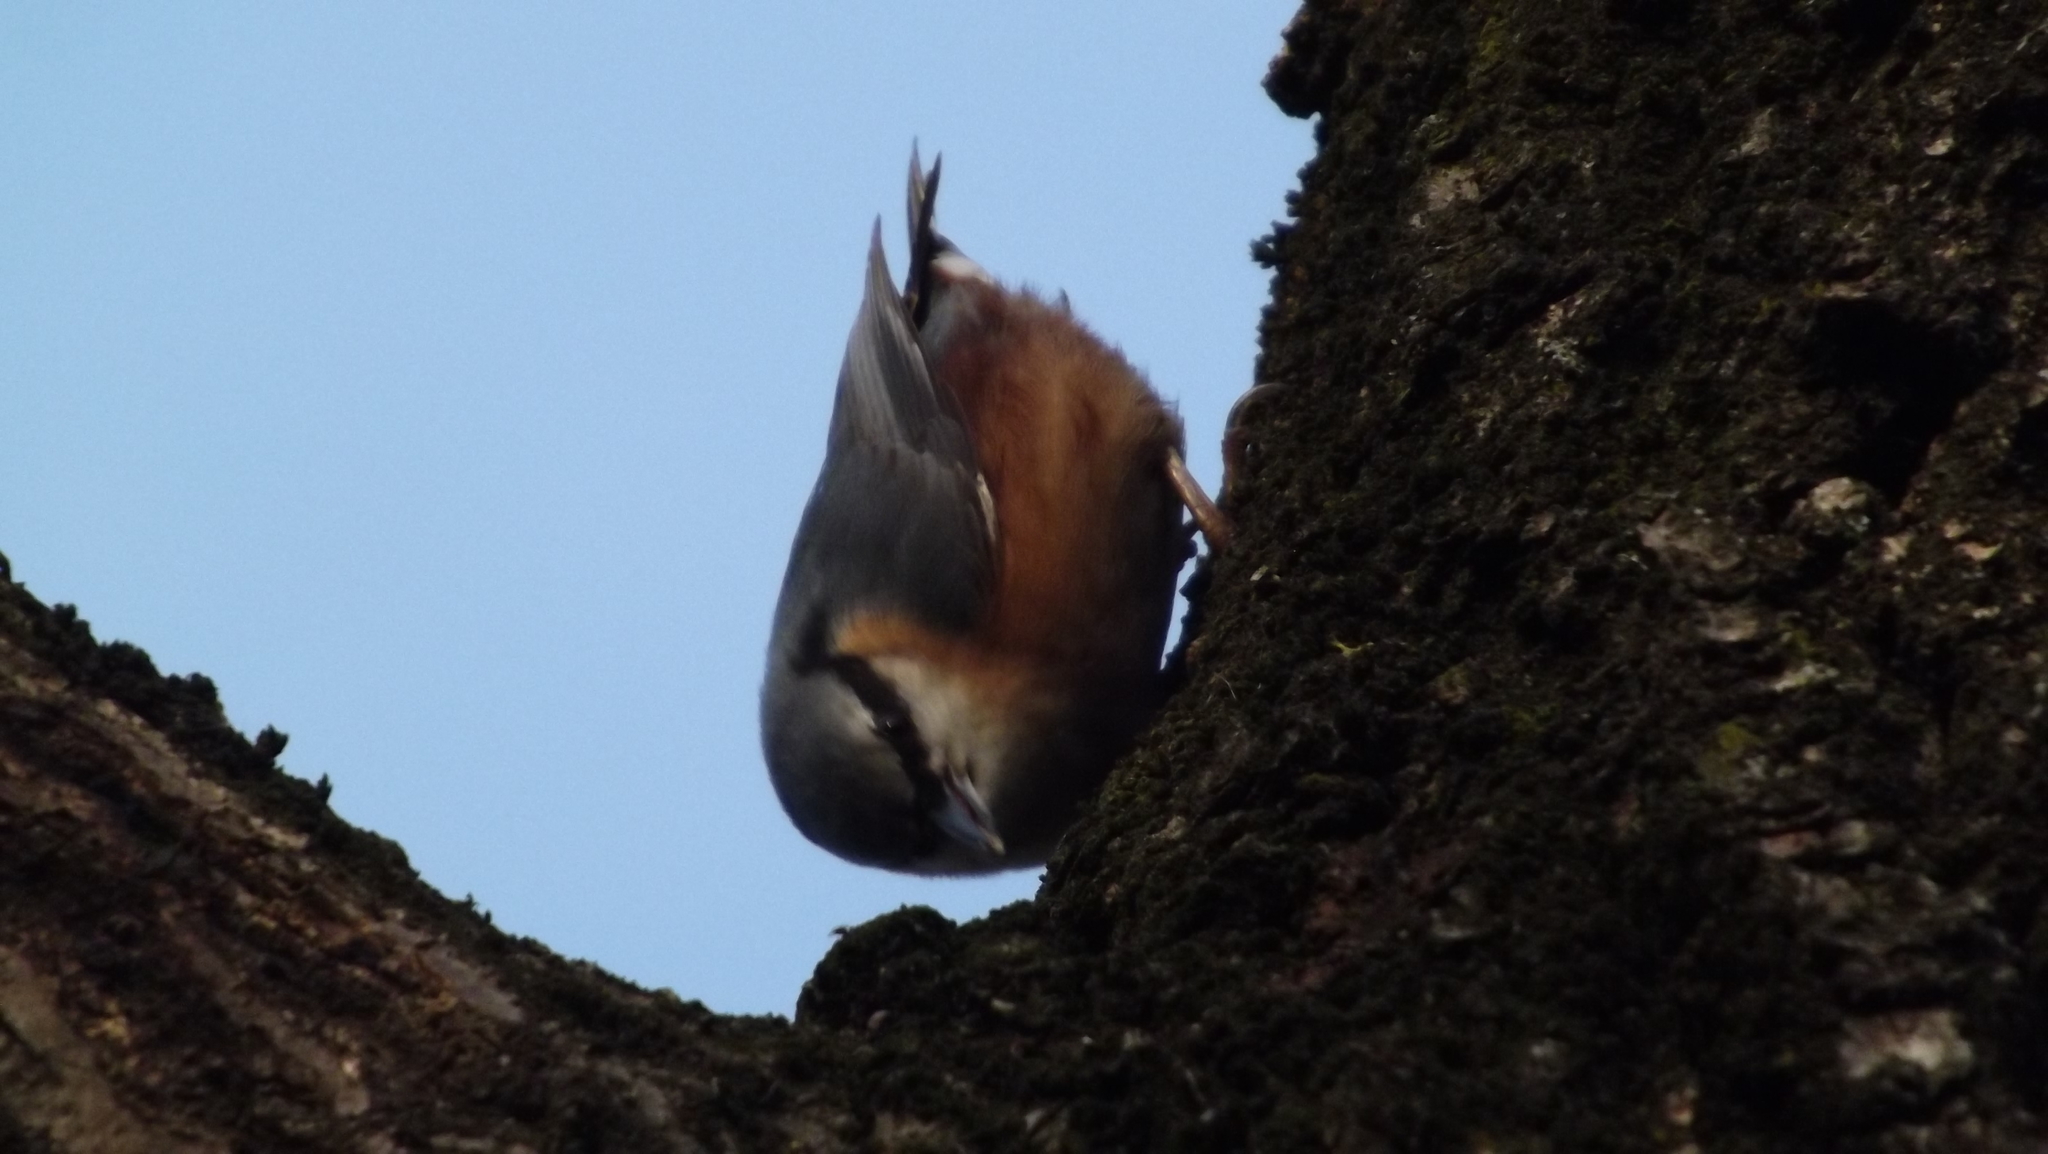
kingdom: Animalia
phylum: Chordata
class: Aves
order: Passeriformes
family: Sittidae
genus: Sitta
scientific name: Sitta europaea
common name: Eurasian nuthatch
